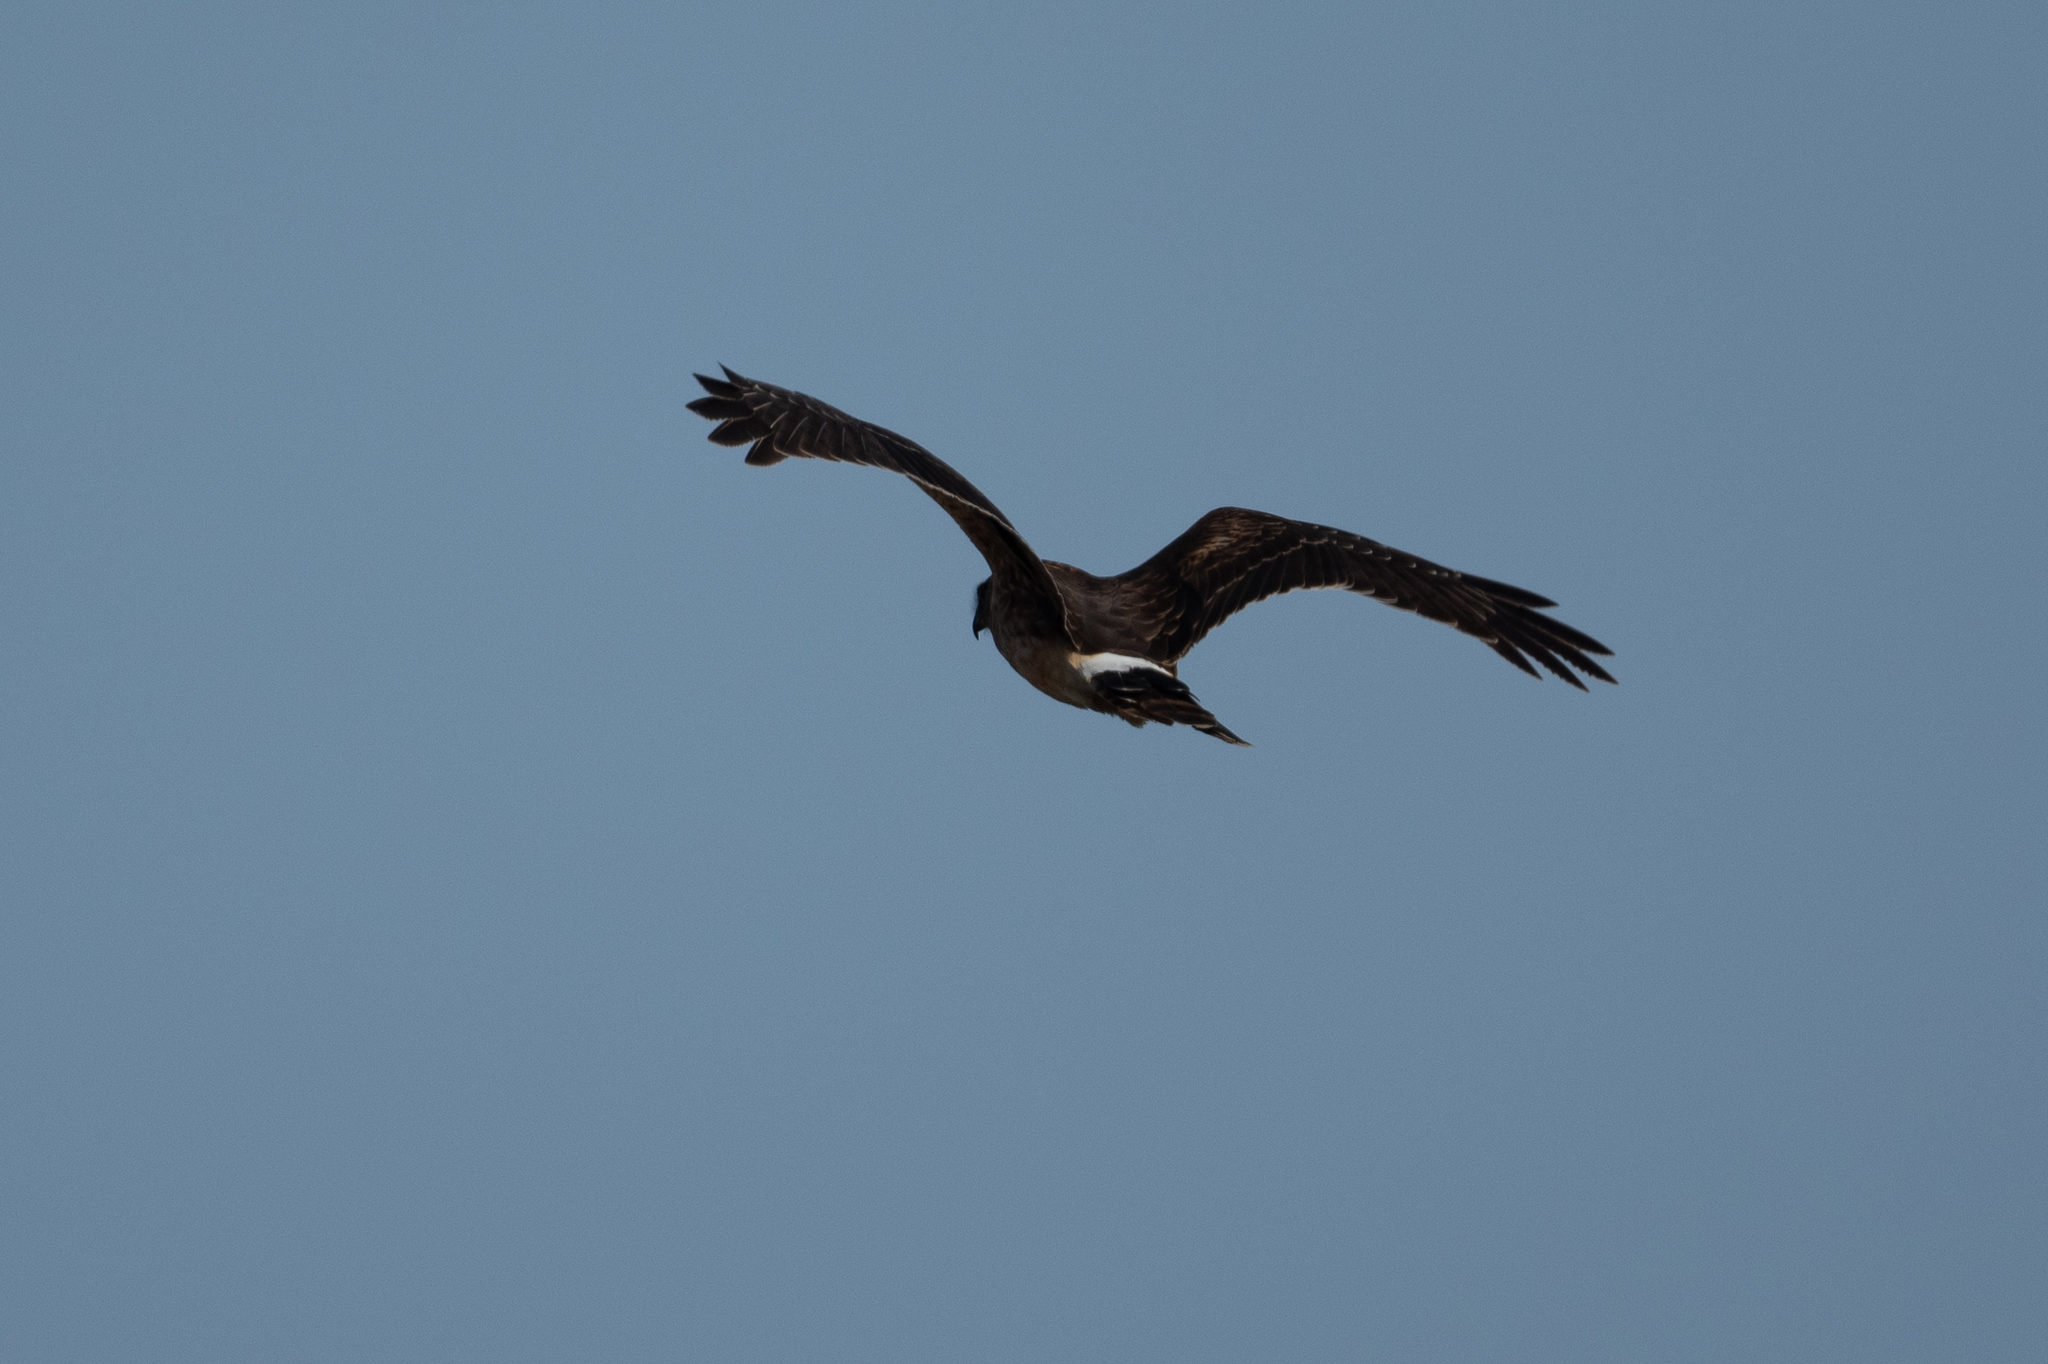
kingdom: Animalia
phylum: Chordata
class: Aves
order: Accipitriformes
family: Accipitridae
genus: Circus
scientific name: Circus cyaneus
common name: Hen harrier
